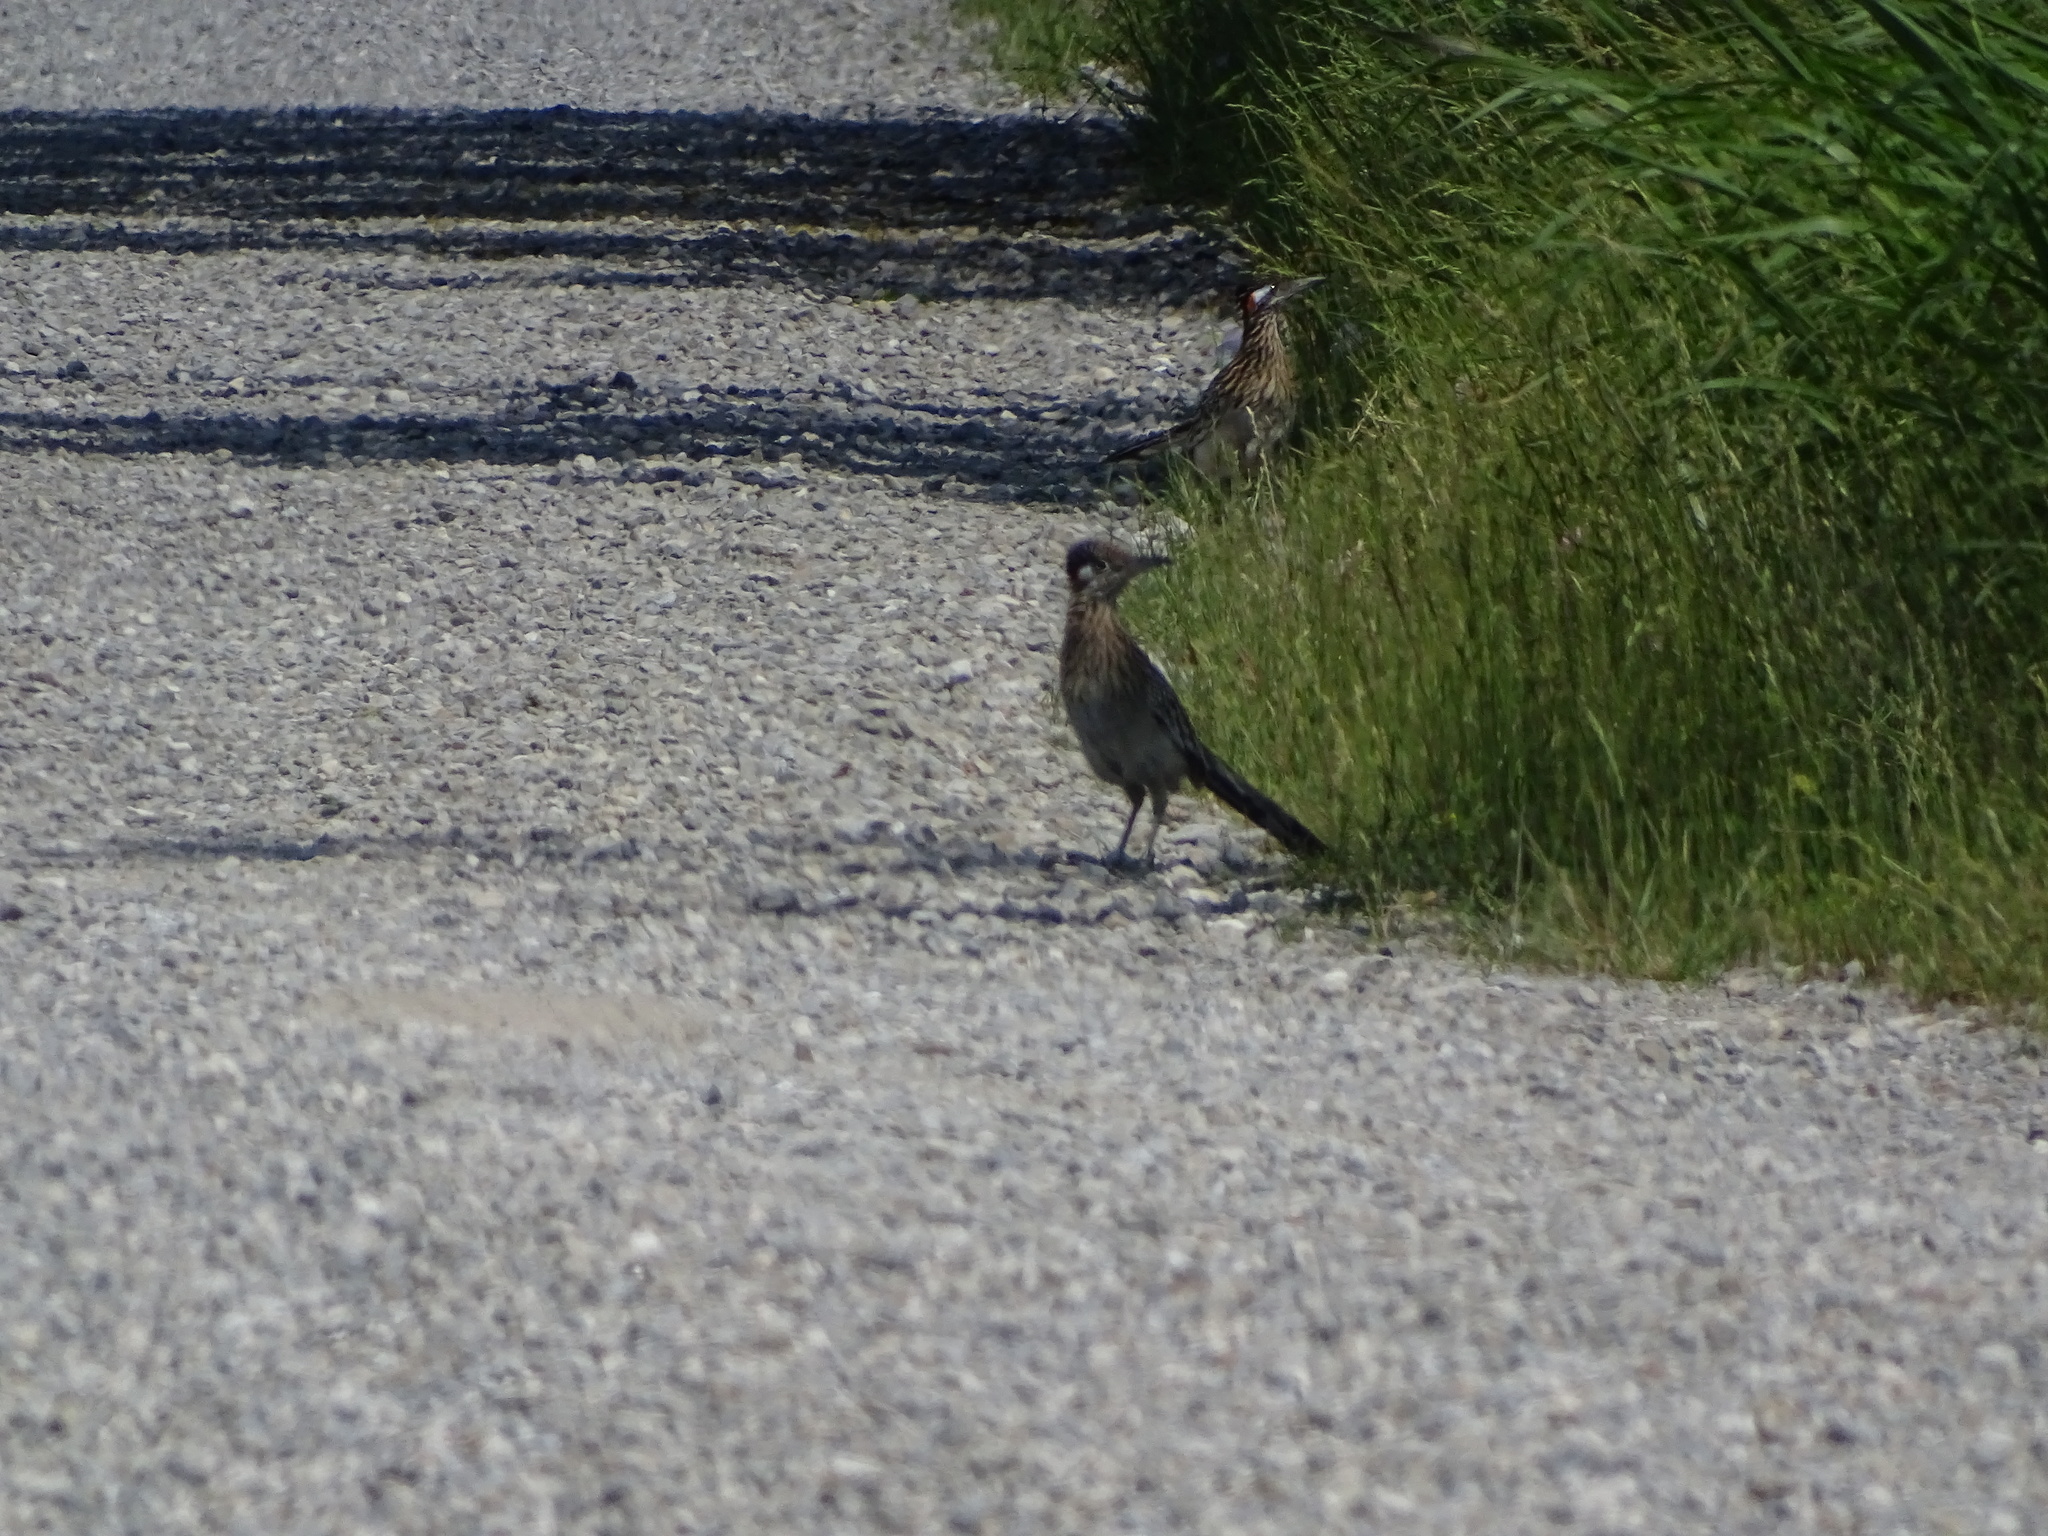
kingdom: Animalia
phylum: Chordata
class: Aves
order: Cuculiformes
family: Cuculidae
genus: Geococcyx
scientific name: Geococcyx californianus
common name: Greater roadrunner
